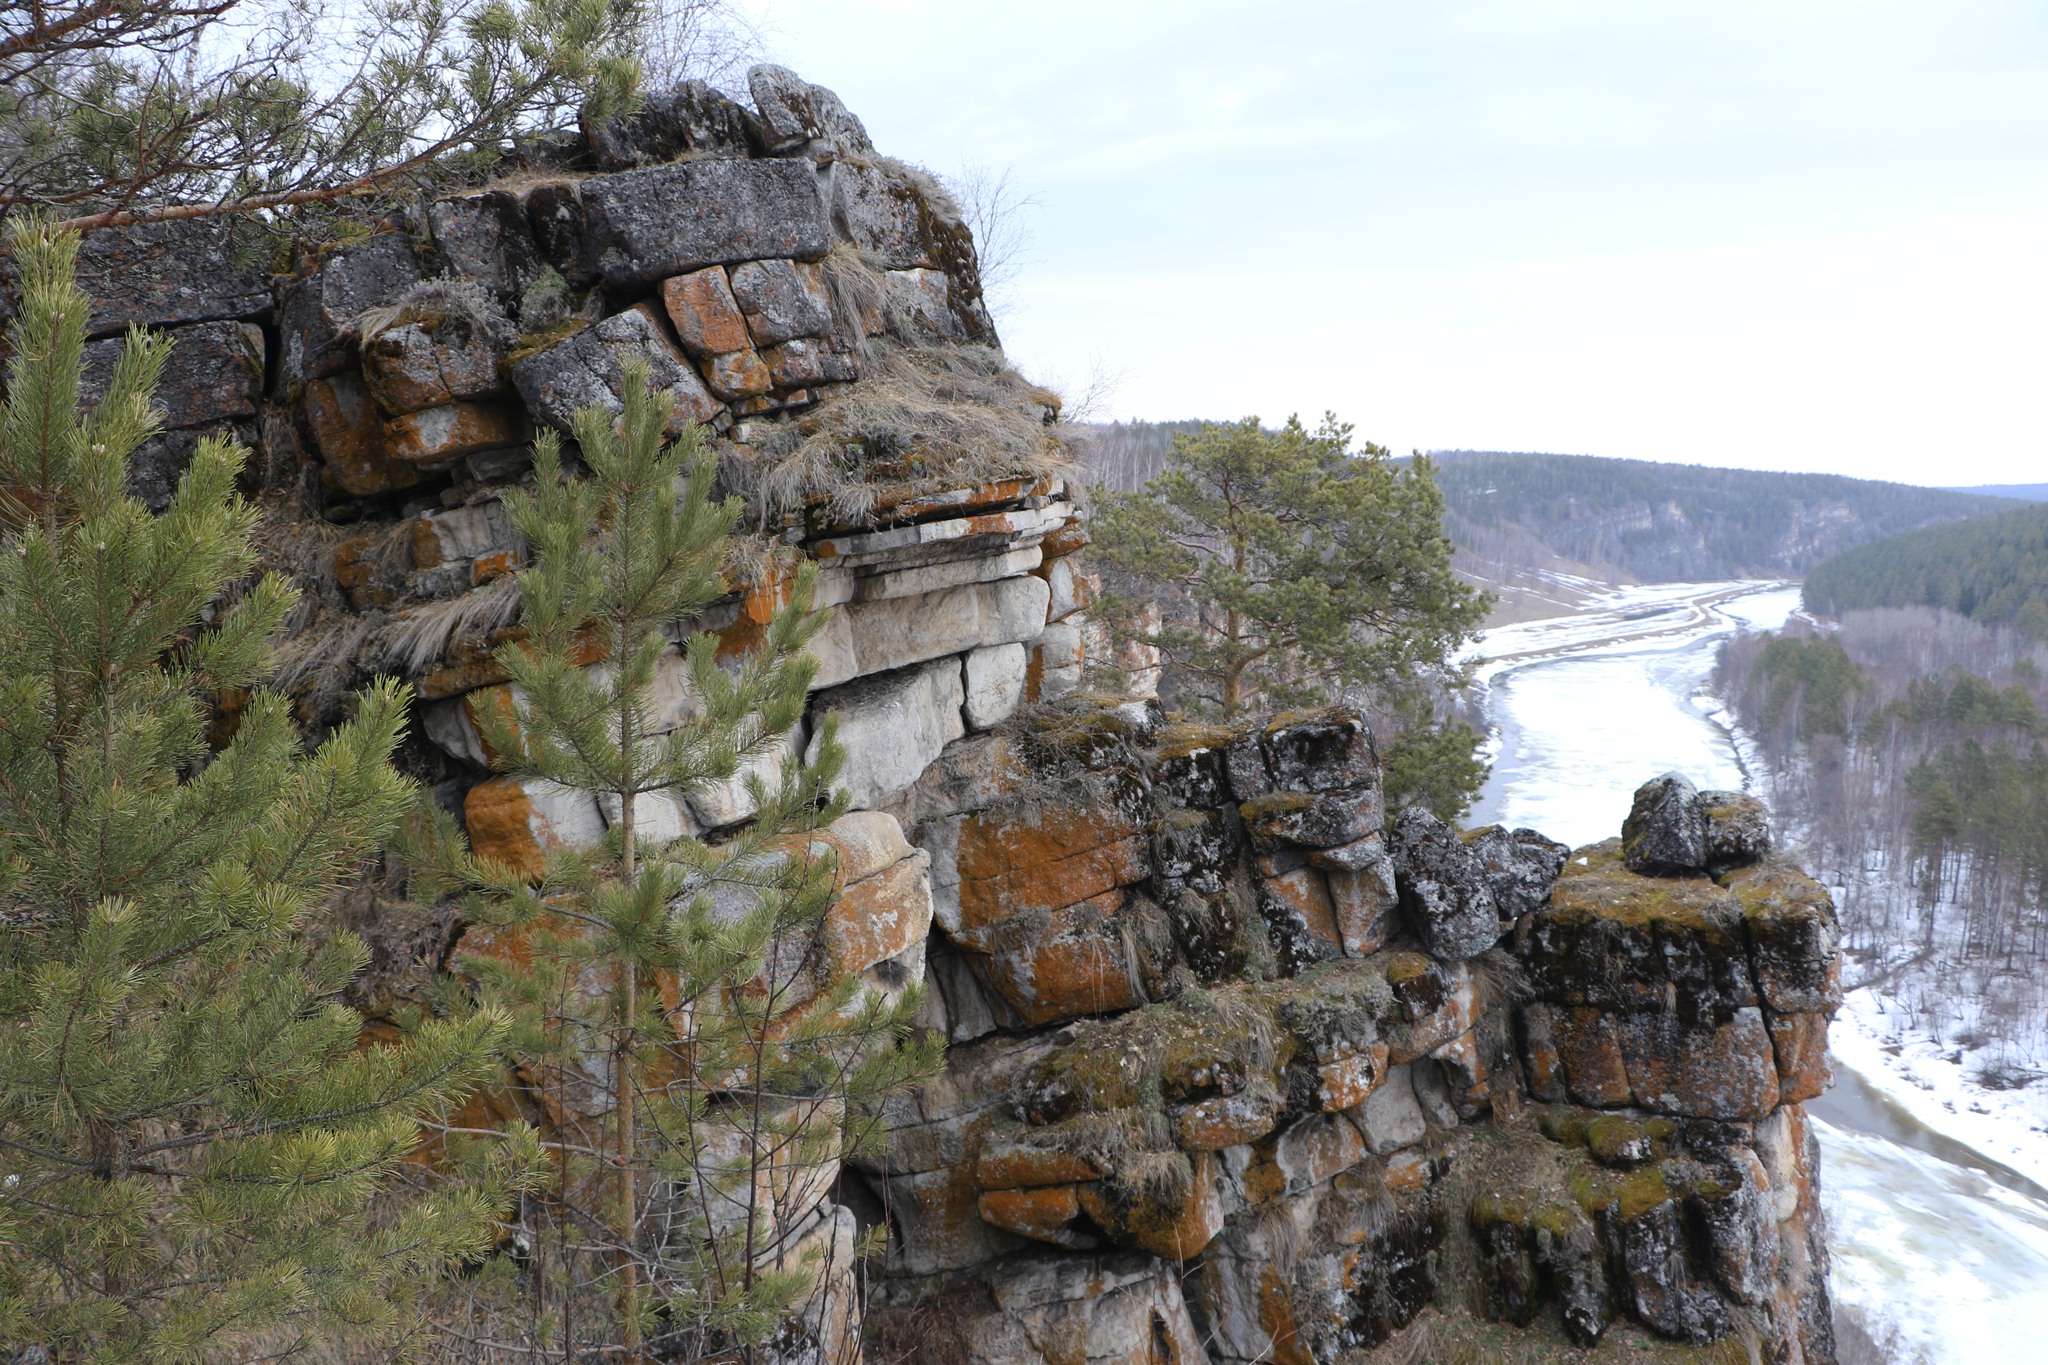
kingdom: Plantae
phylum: Tracheophyta
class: Pinopsida
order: Pinales
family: Pinaceae
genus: Pinus
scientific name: Pinus sylvestris
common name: Scots pine
